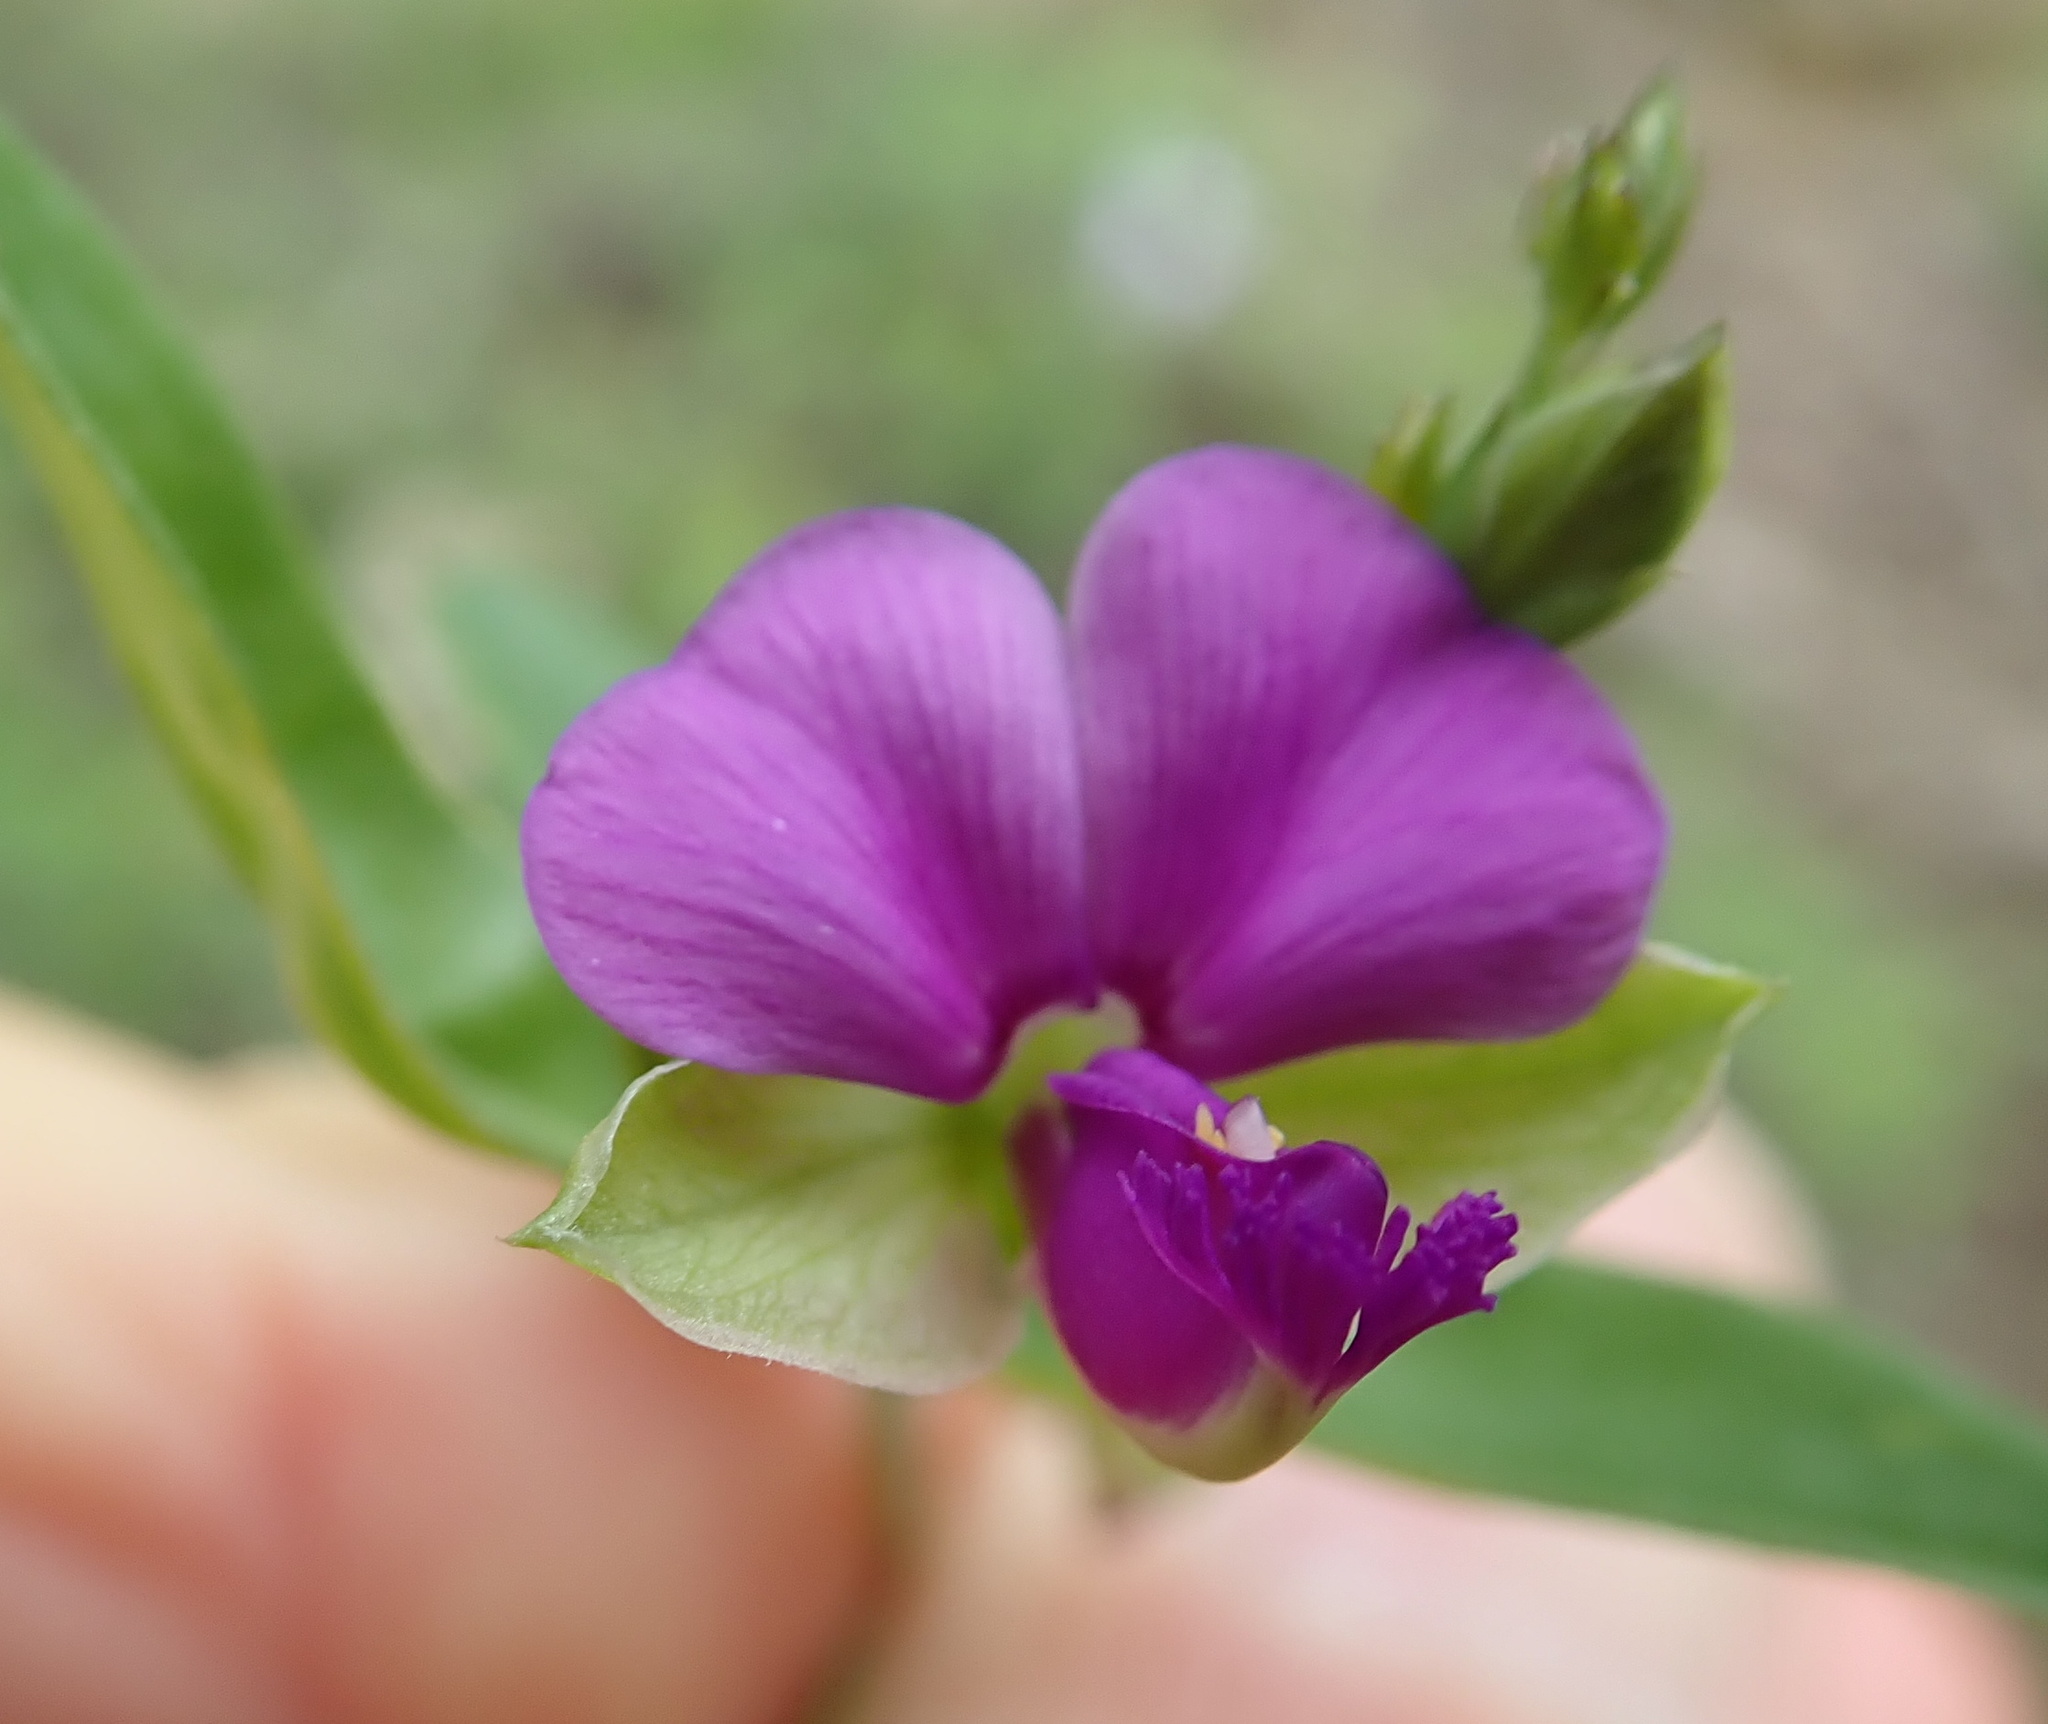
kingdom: Plantae
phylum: Tracheophyta
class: Magnoliopsida
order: Fabales
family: Polygalaceae
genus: Polygala
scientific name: Polygala amatymbica
